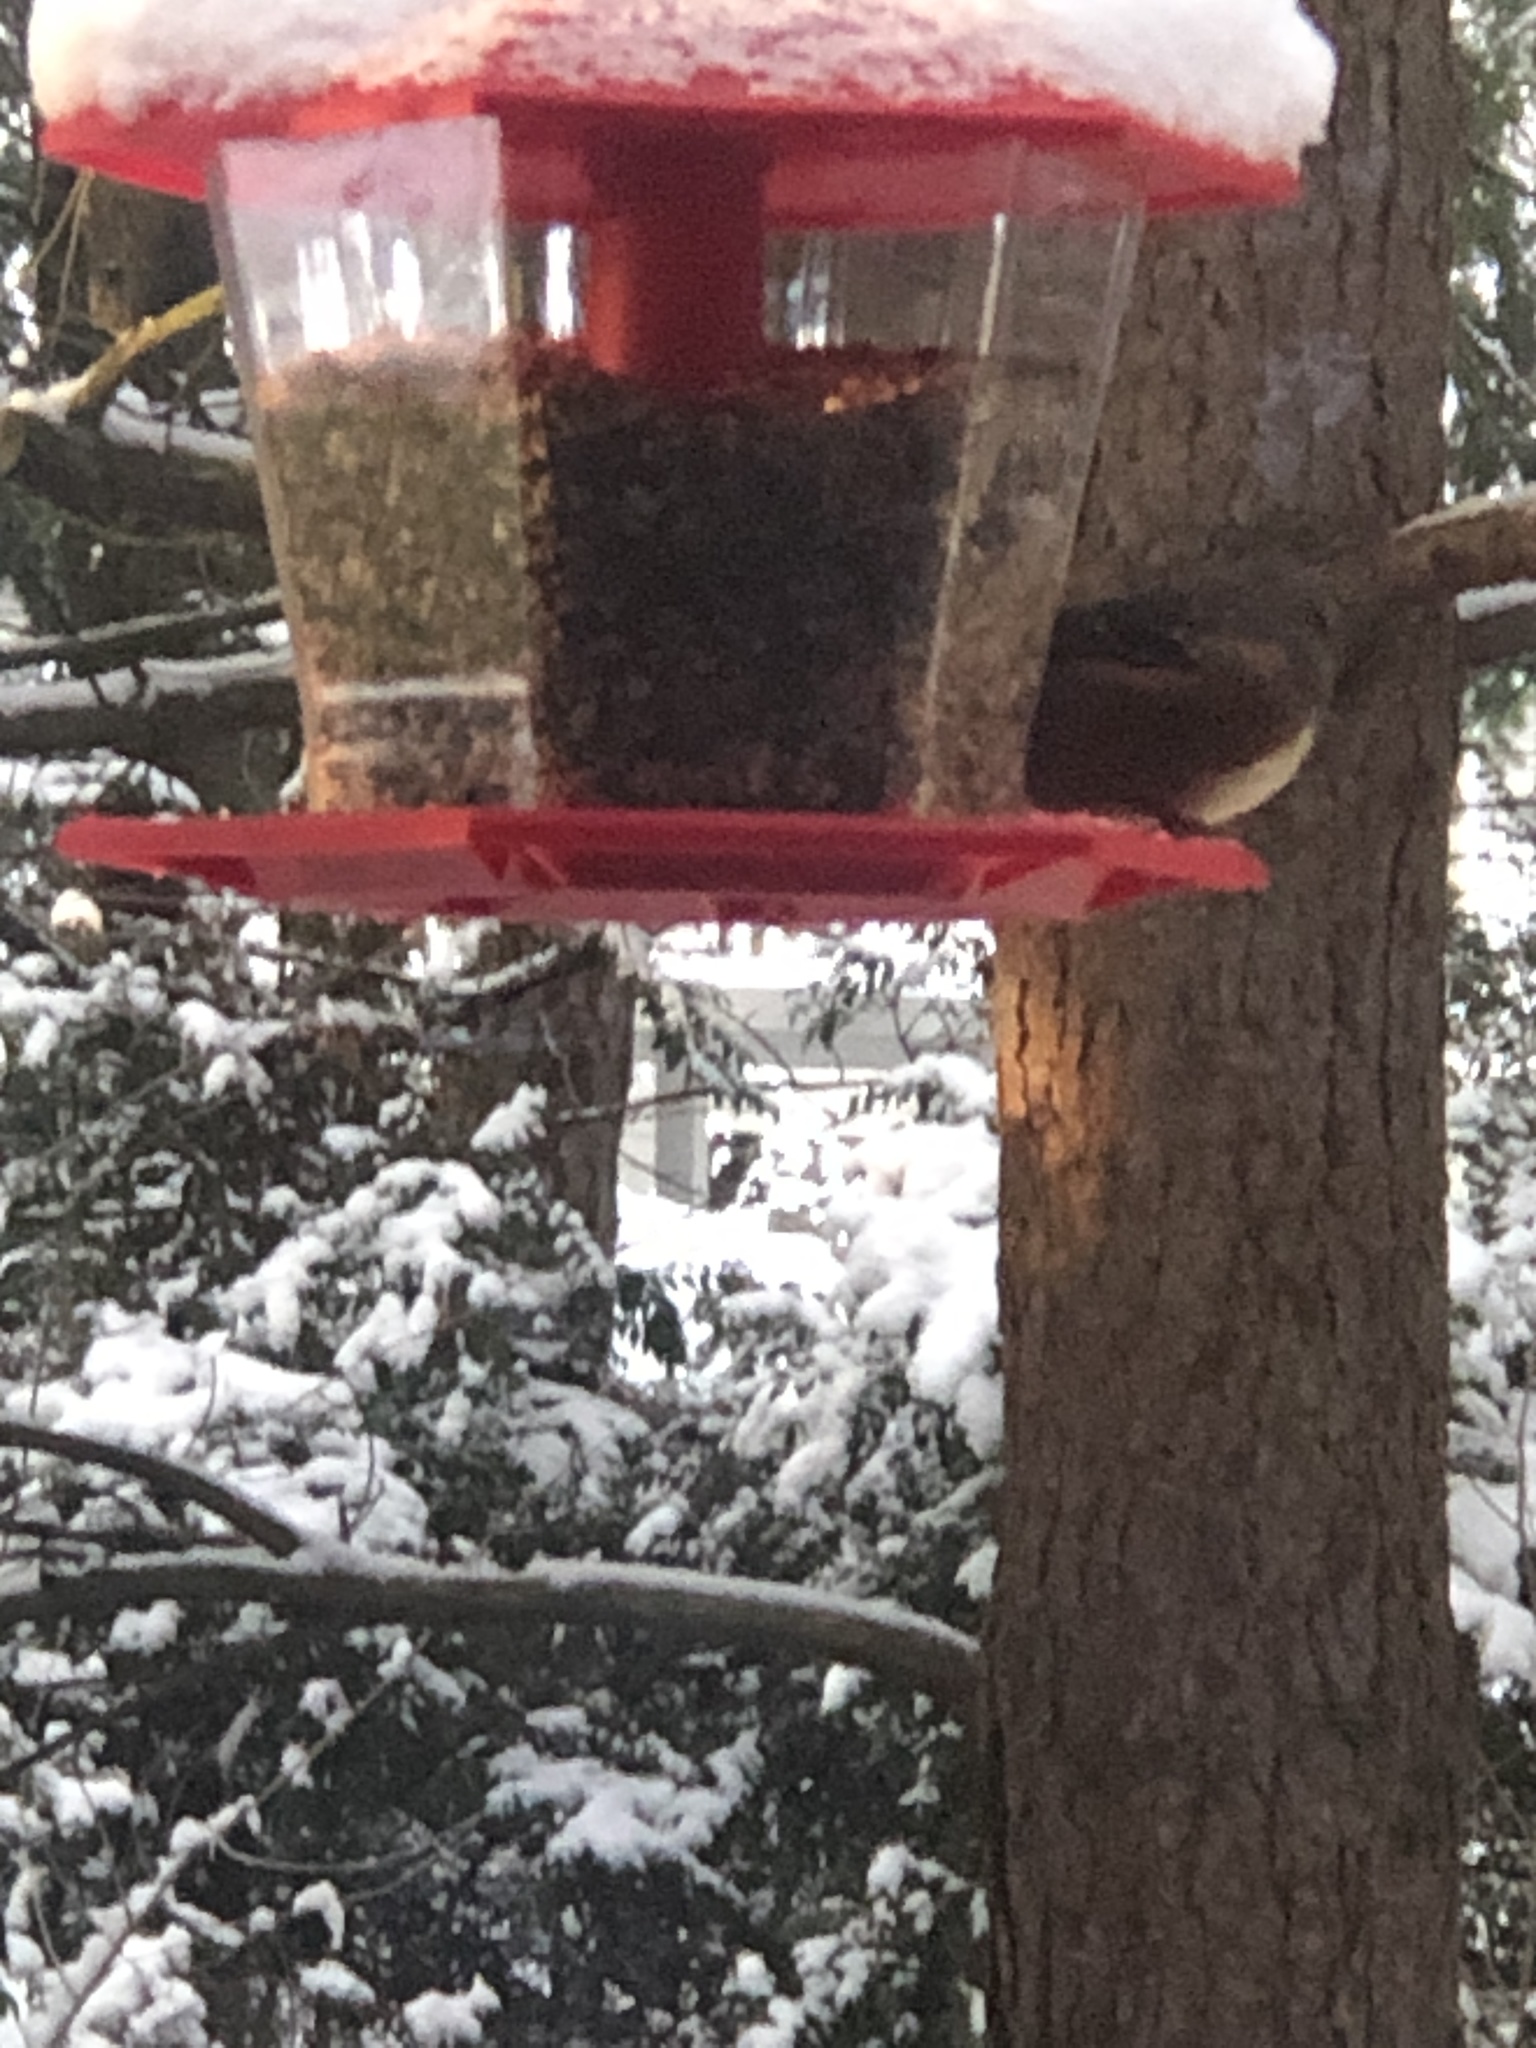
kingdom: Animalia
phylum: Chordata
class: Aves
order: Passeriformes
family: Passerellidae
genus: Pipilo
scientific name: Pipilo maculatus
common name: Spotted towhee
